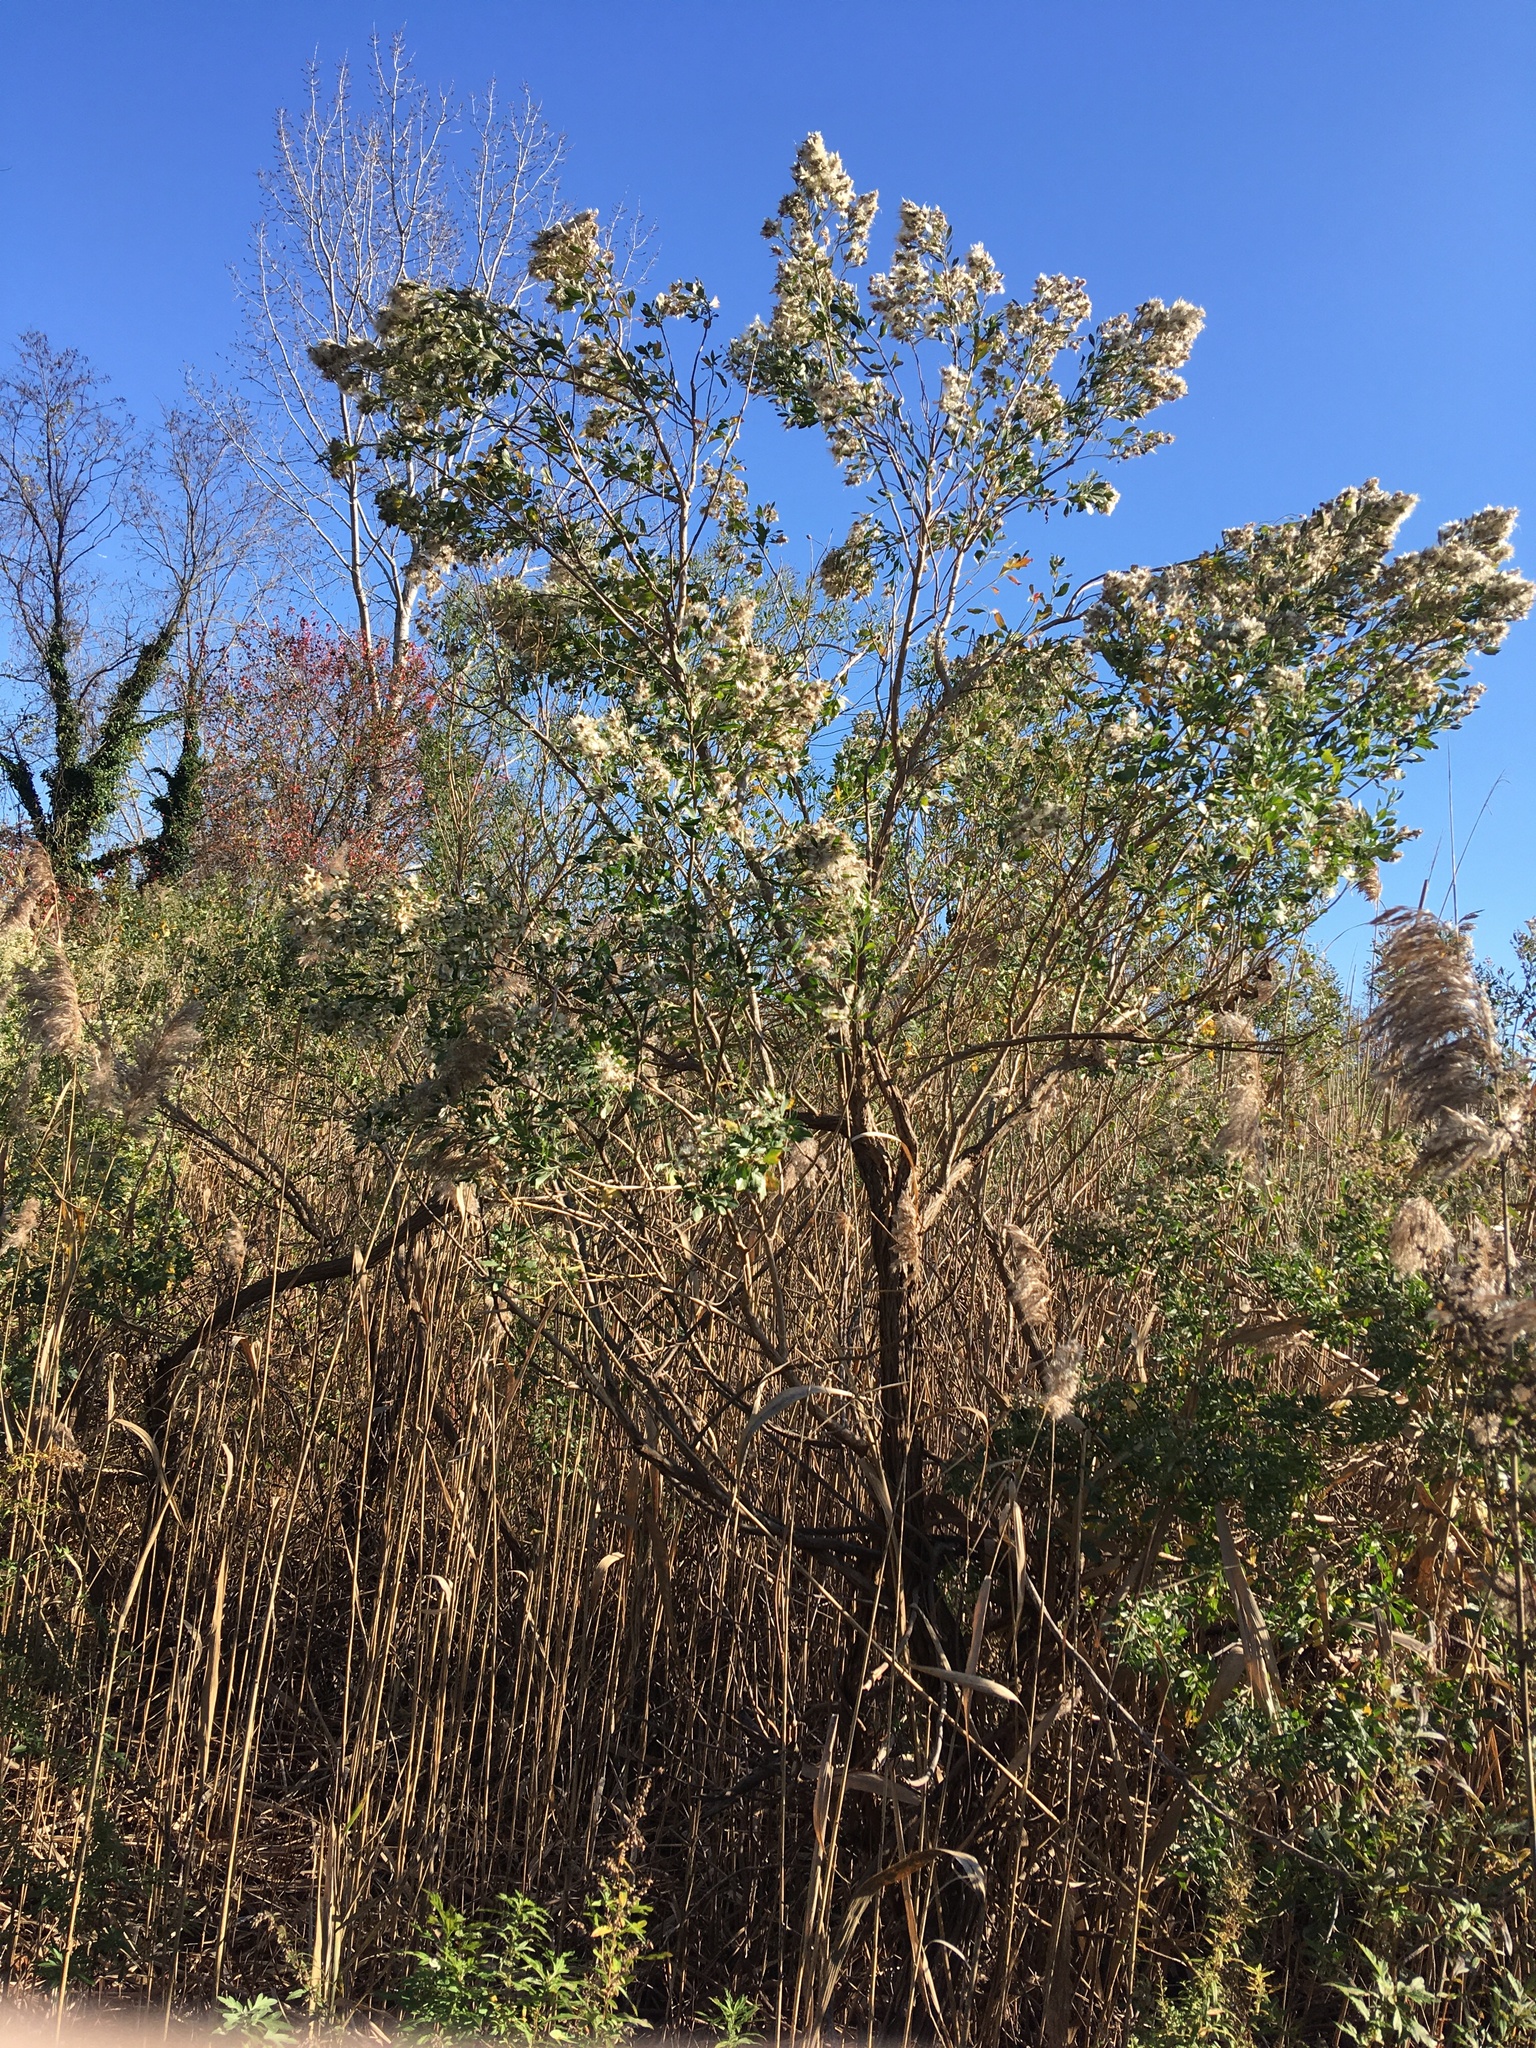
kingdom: Plantae
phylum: Tracheophyta
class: Magnoliopsida
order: Asterales
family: Asteraceae
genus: Baccharis
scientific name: Baccharis halimifolia
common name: Eastern baccharis
